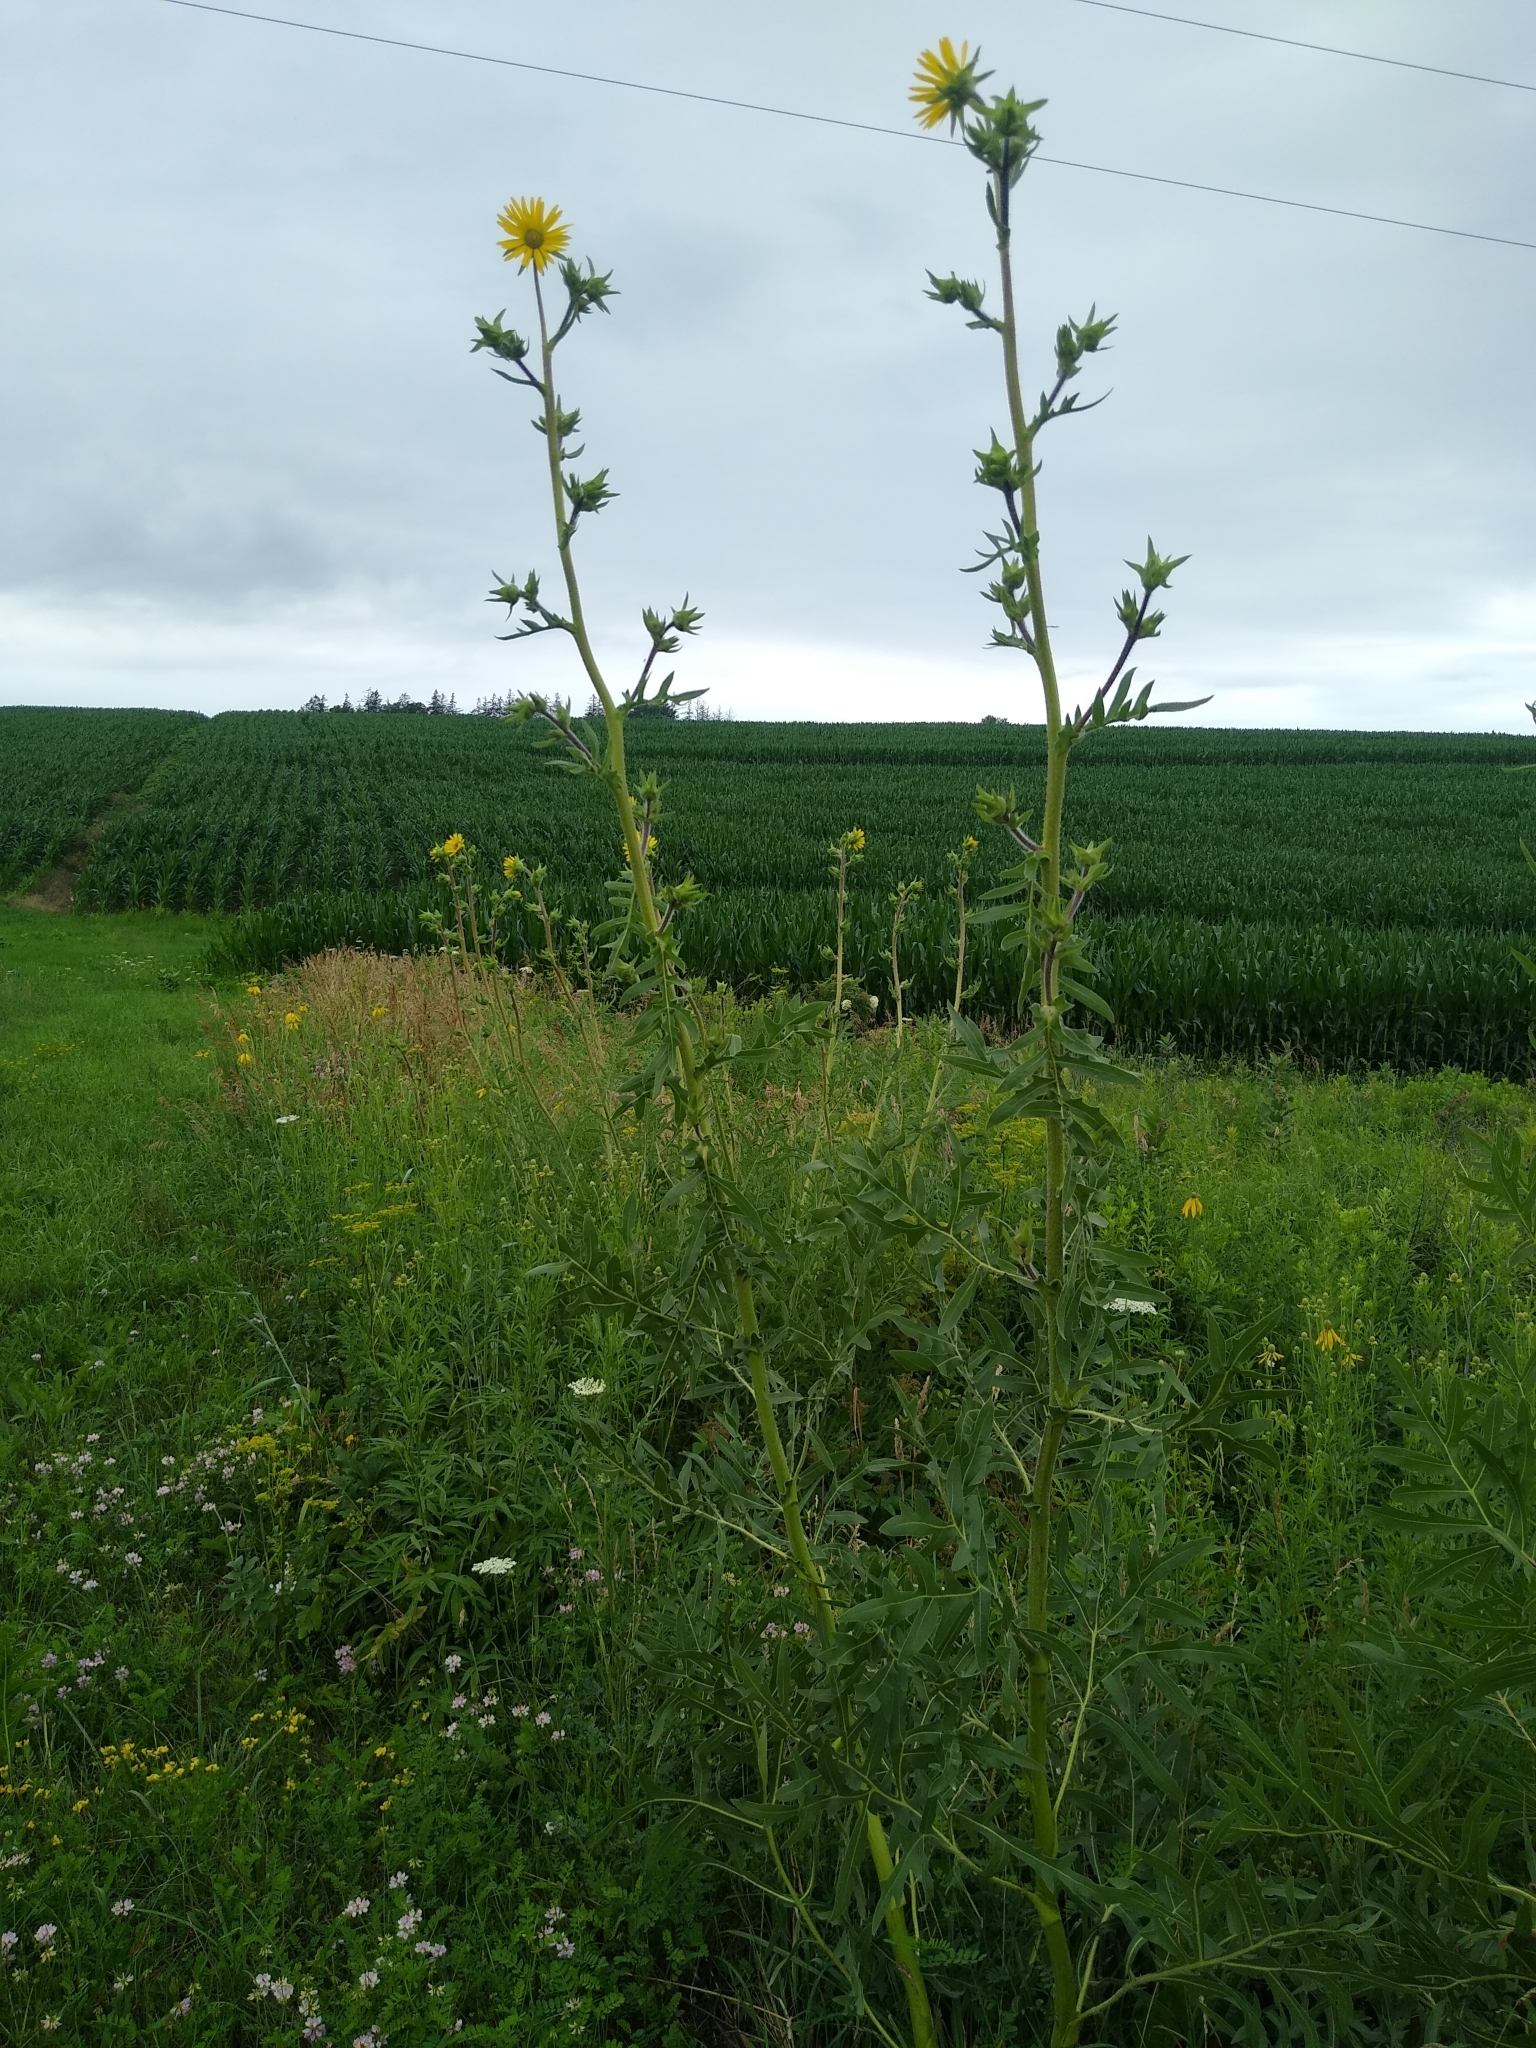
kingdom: Plantae
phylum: Tracheophyta
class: Magnoliopsida
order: Asterales
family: Asteraceae
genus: Silphium
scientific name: Silphium laciniatum
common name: Polarplant
